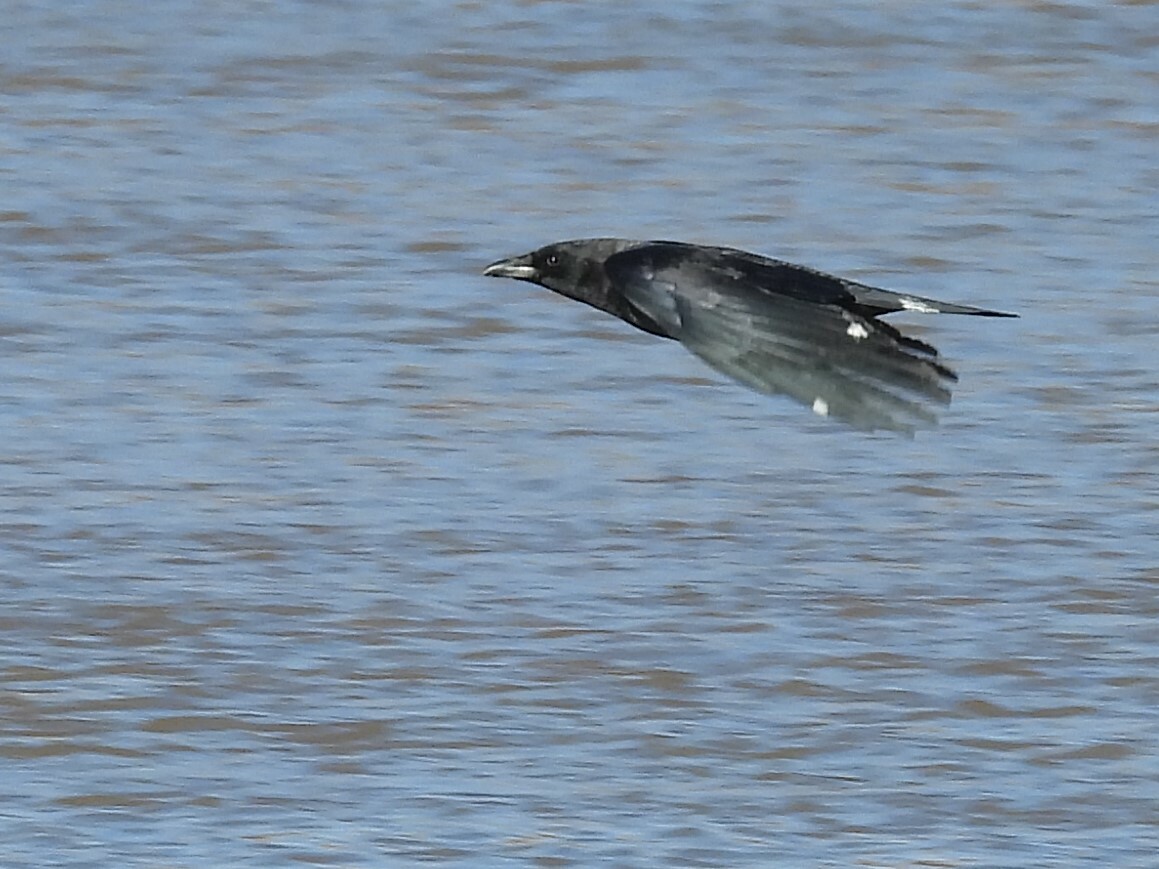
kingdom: Animalia
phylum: Chordata
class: Aves
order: Passeriformes
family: Corvidae
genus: Corvus
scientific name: Corvus brachyrhynchos
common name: American crow
